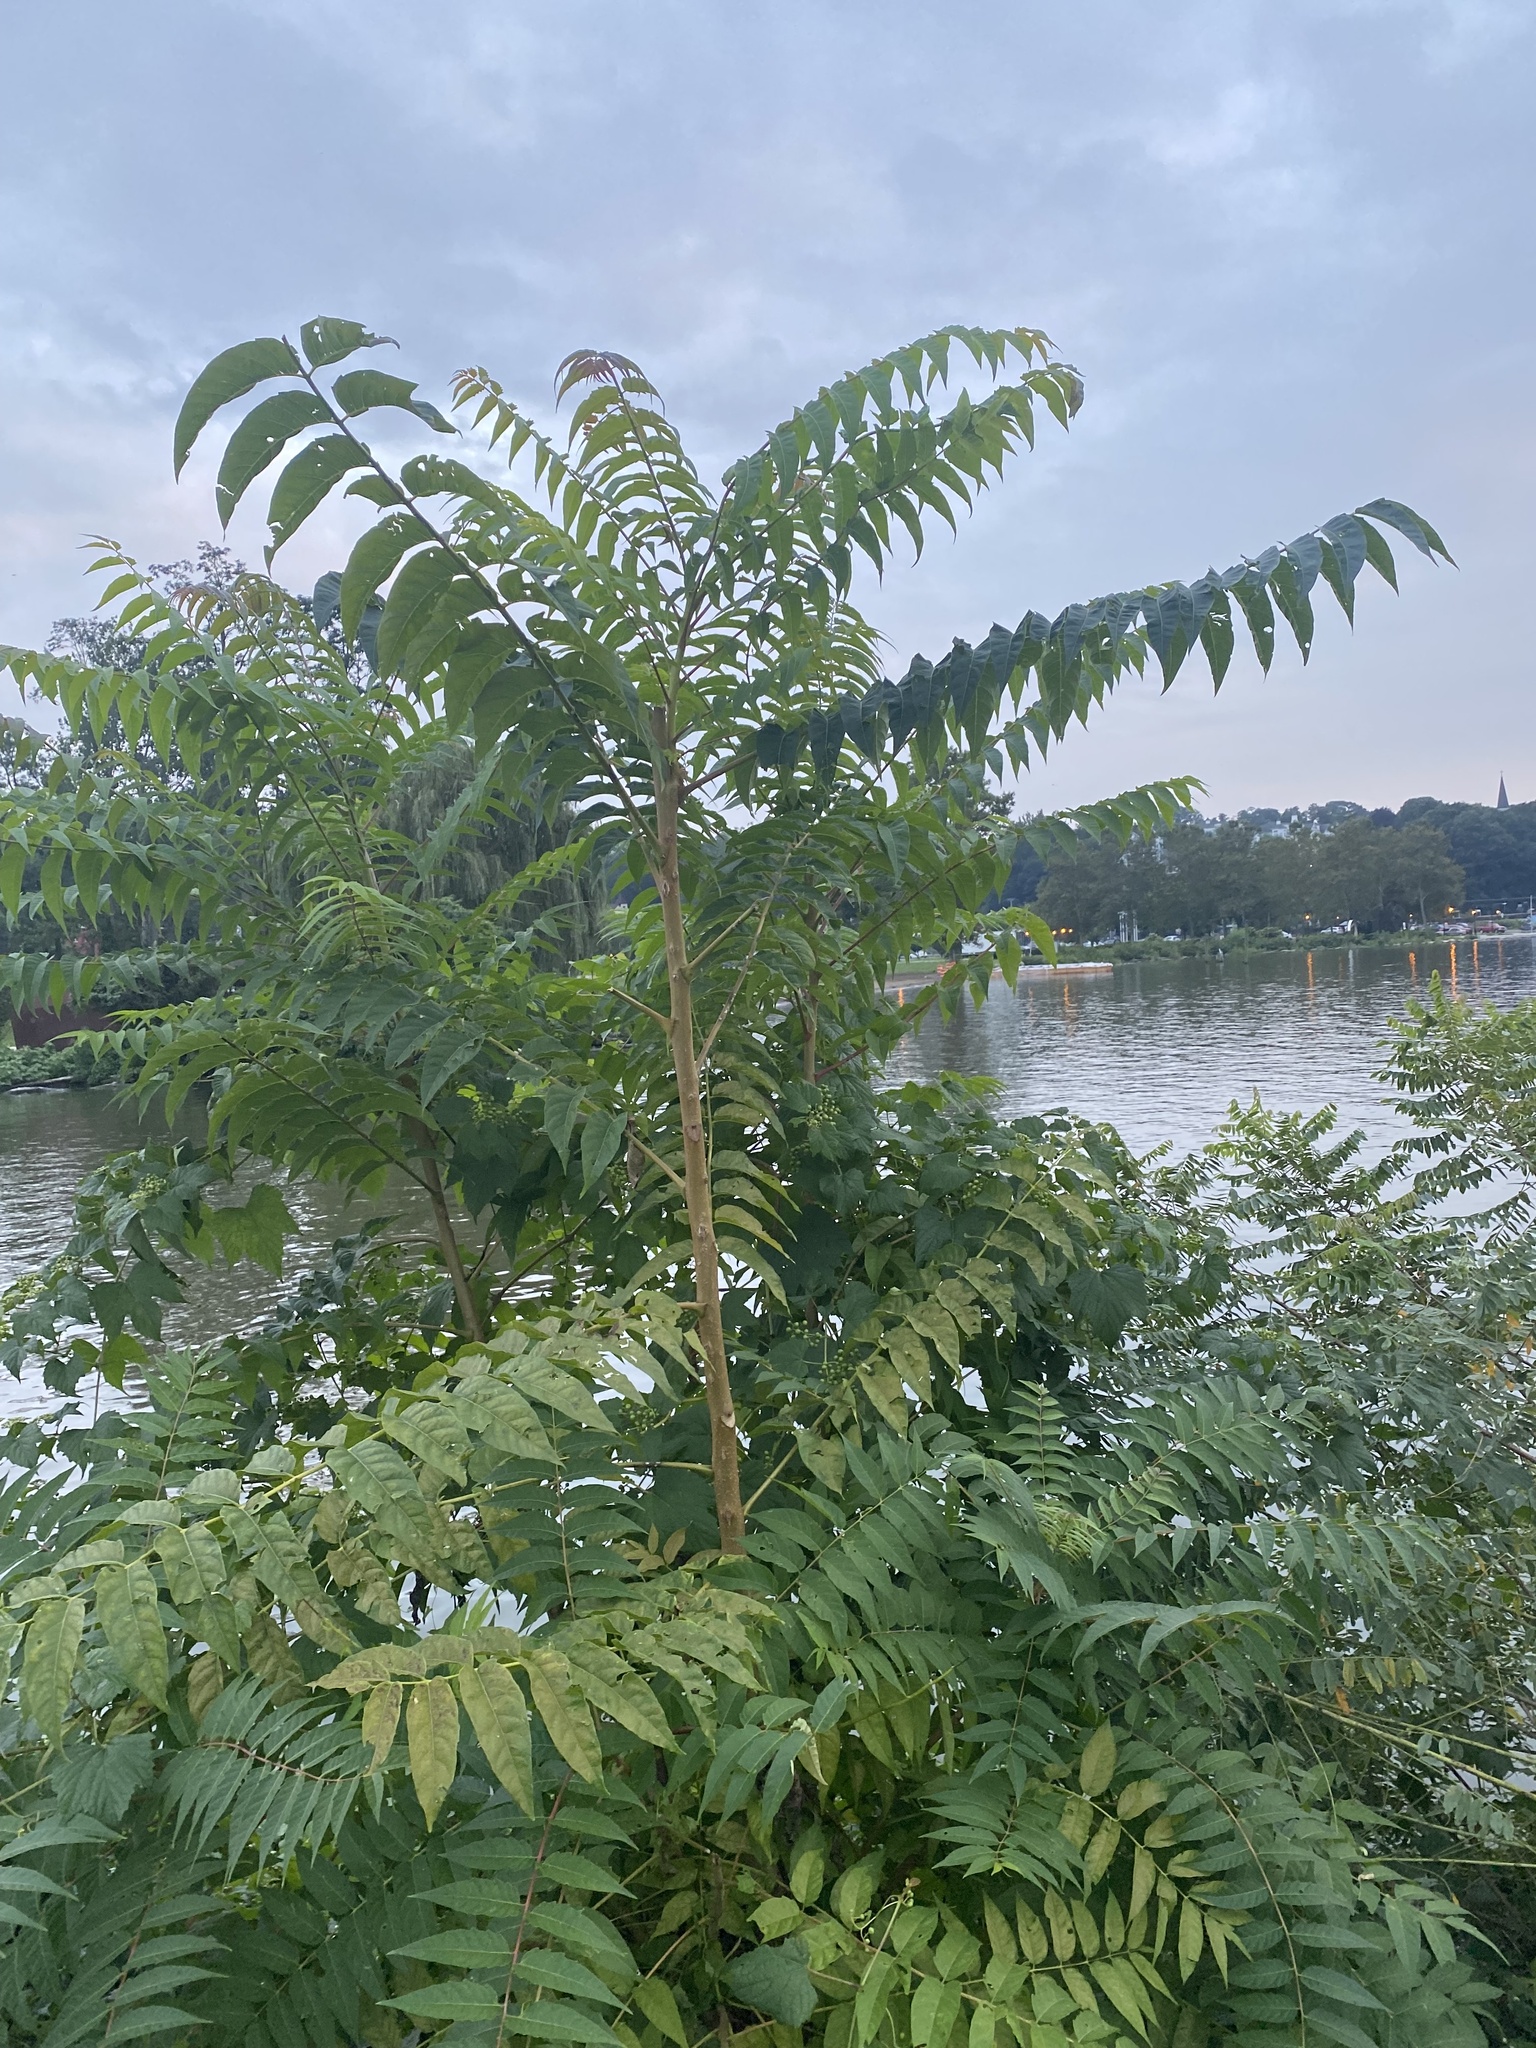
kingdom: Plantae
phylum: Tracheophyta
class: Magnoliopsida
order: Sapindales
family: Simaroubaceae
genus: Ailanthus
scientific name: Ailanthus altissima
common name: Tree-of-heaven
